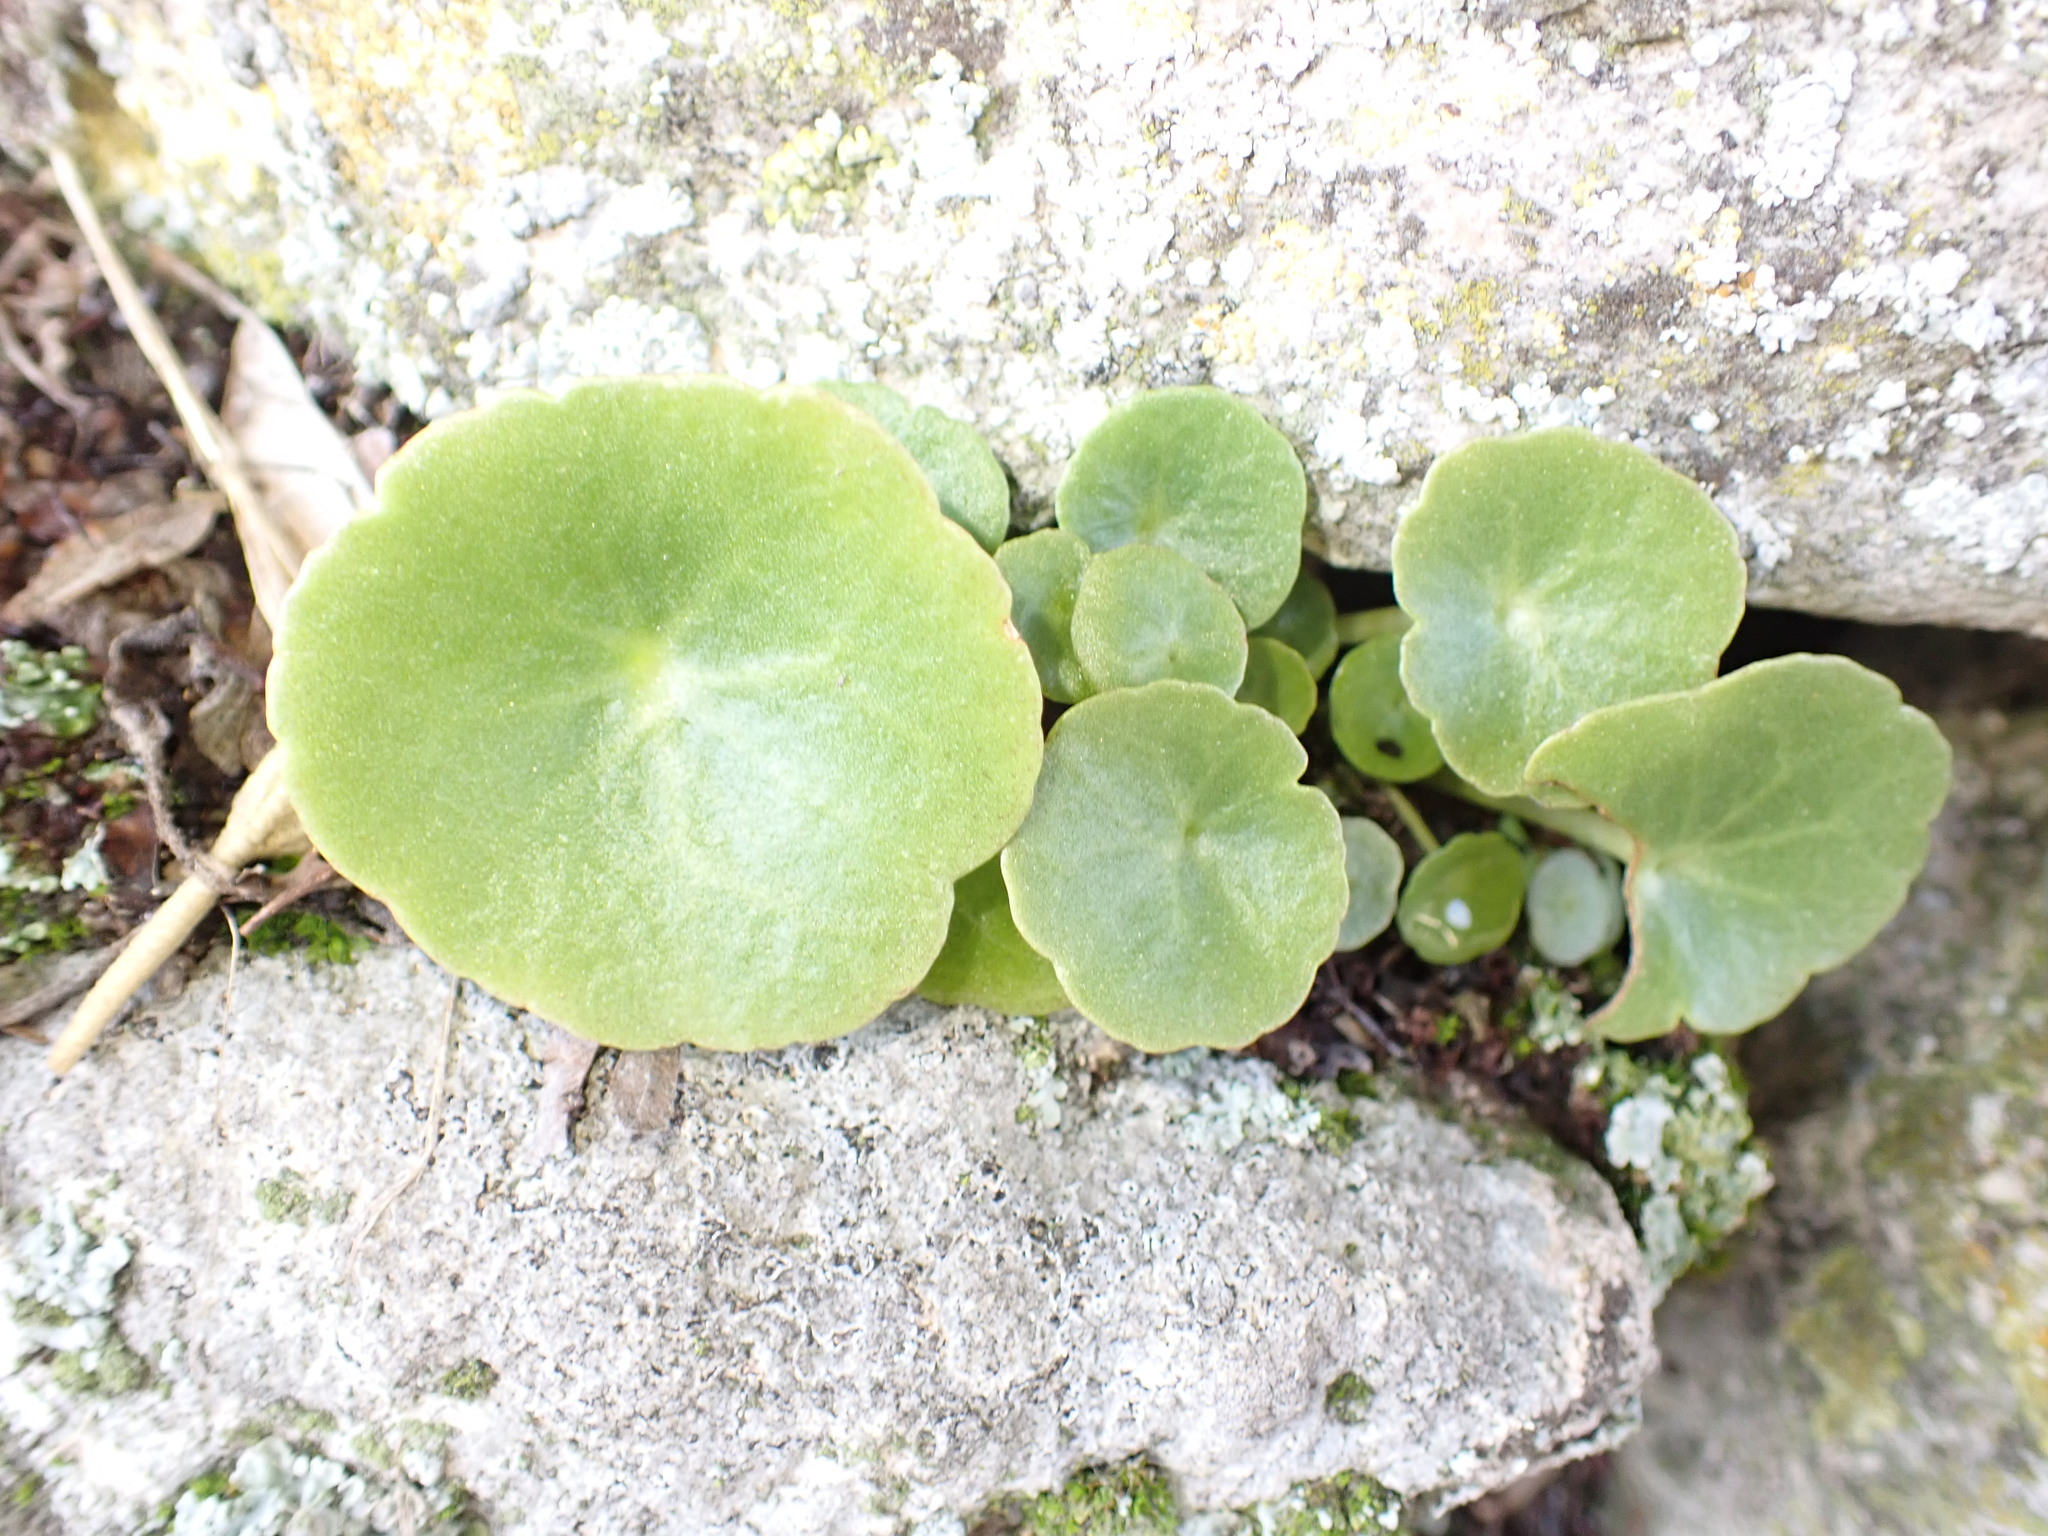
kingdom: Plantae
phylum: Tracheophyta
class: Magnoliopsida
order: Saxifragales
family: Crassulaceae
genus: Umbilicus
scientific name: Umbilicus rupestris
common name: Navelwort
